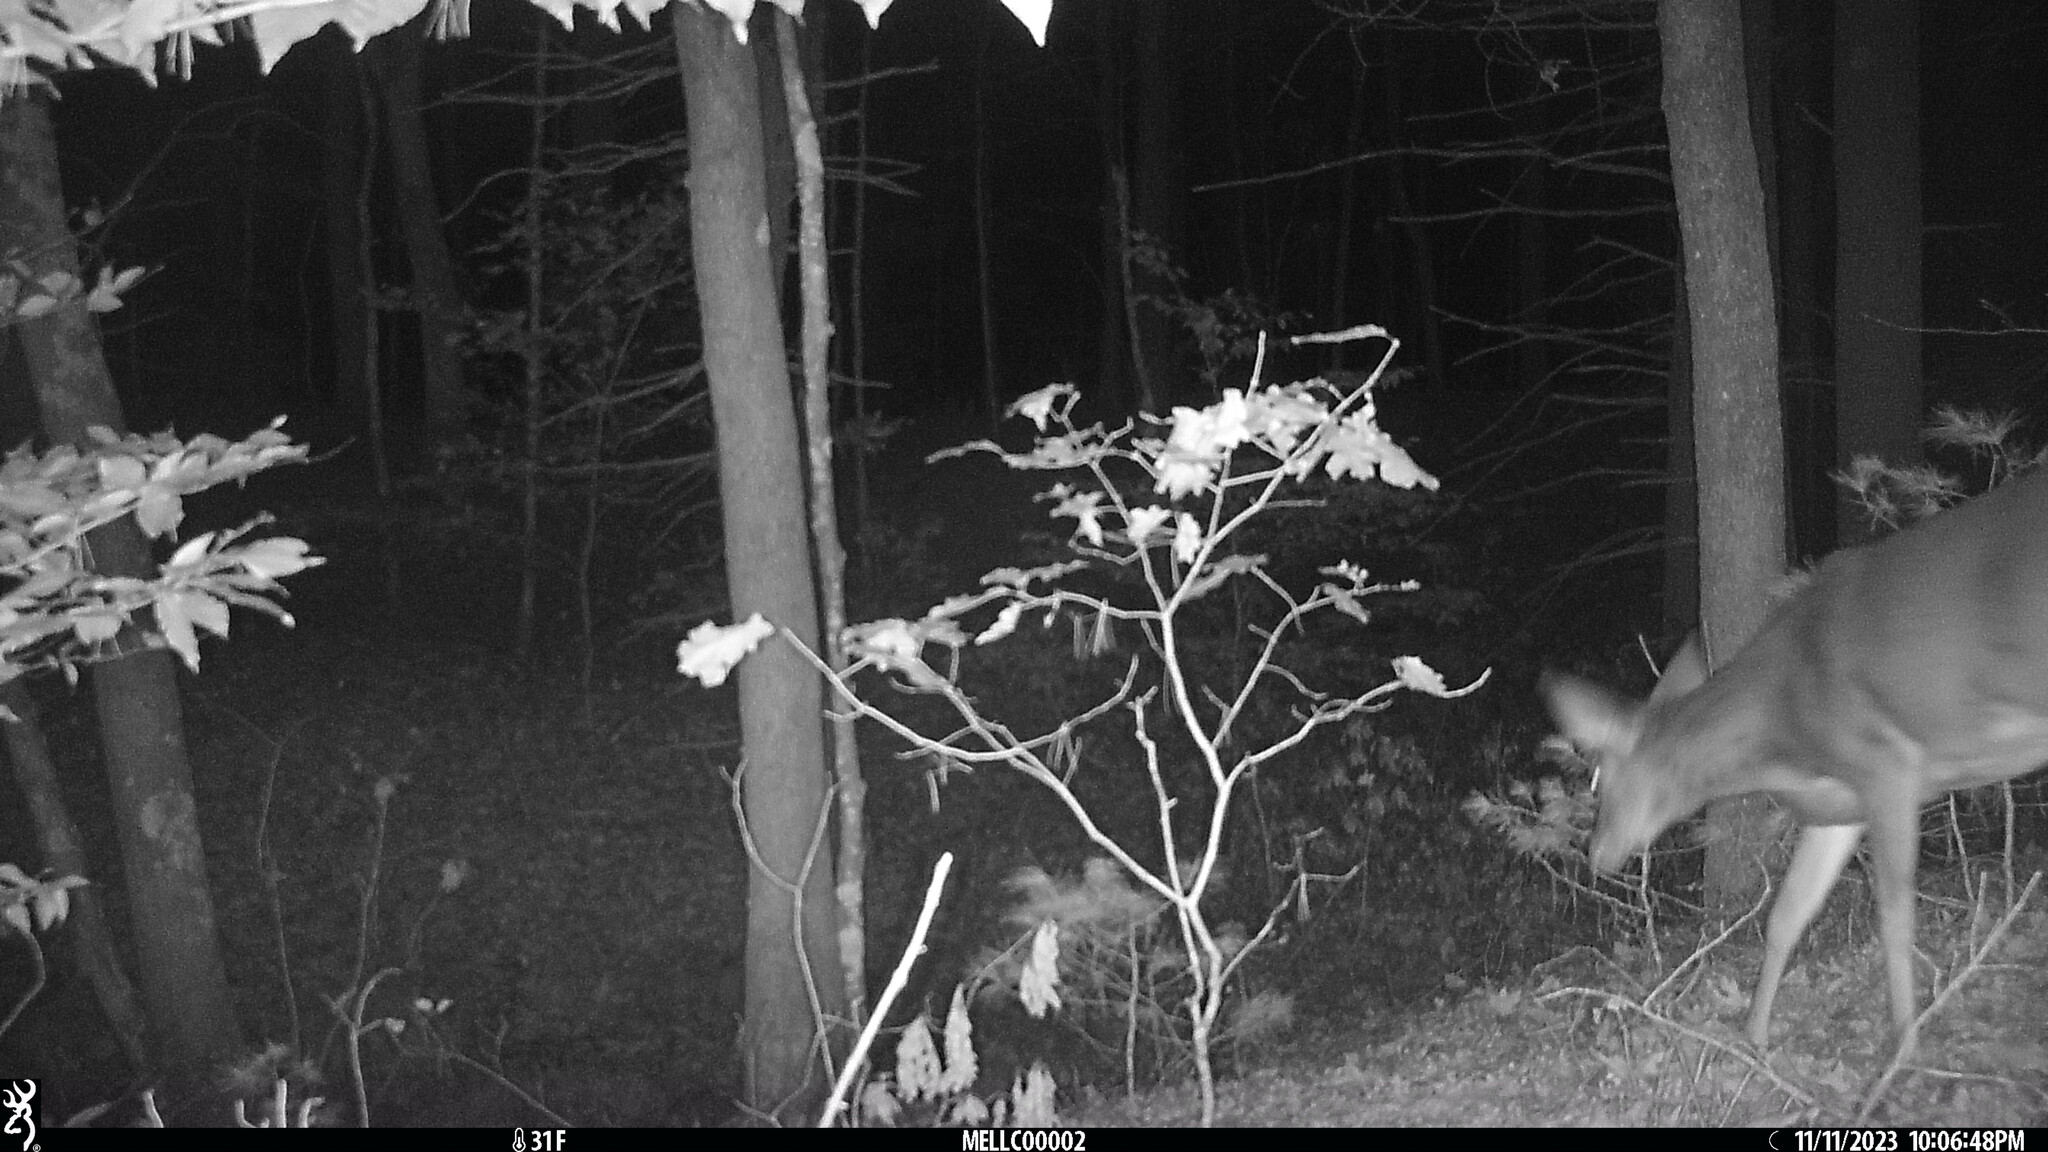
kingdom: Animalia
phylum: Chordata
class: Mammalia
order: Artiodactyla
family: Cervidae
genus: Odocoileus
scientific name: Odocoileus virginianus
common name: White-tailed deer
